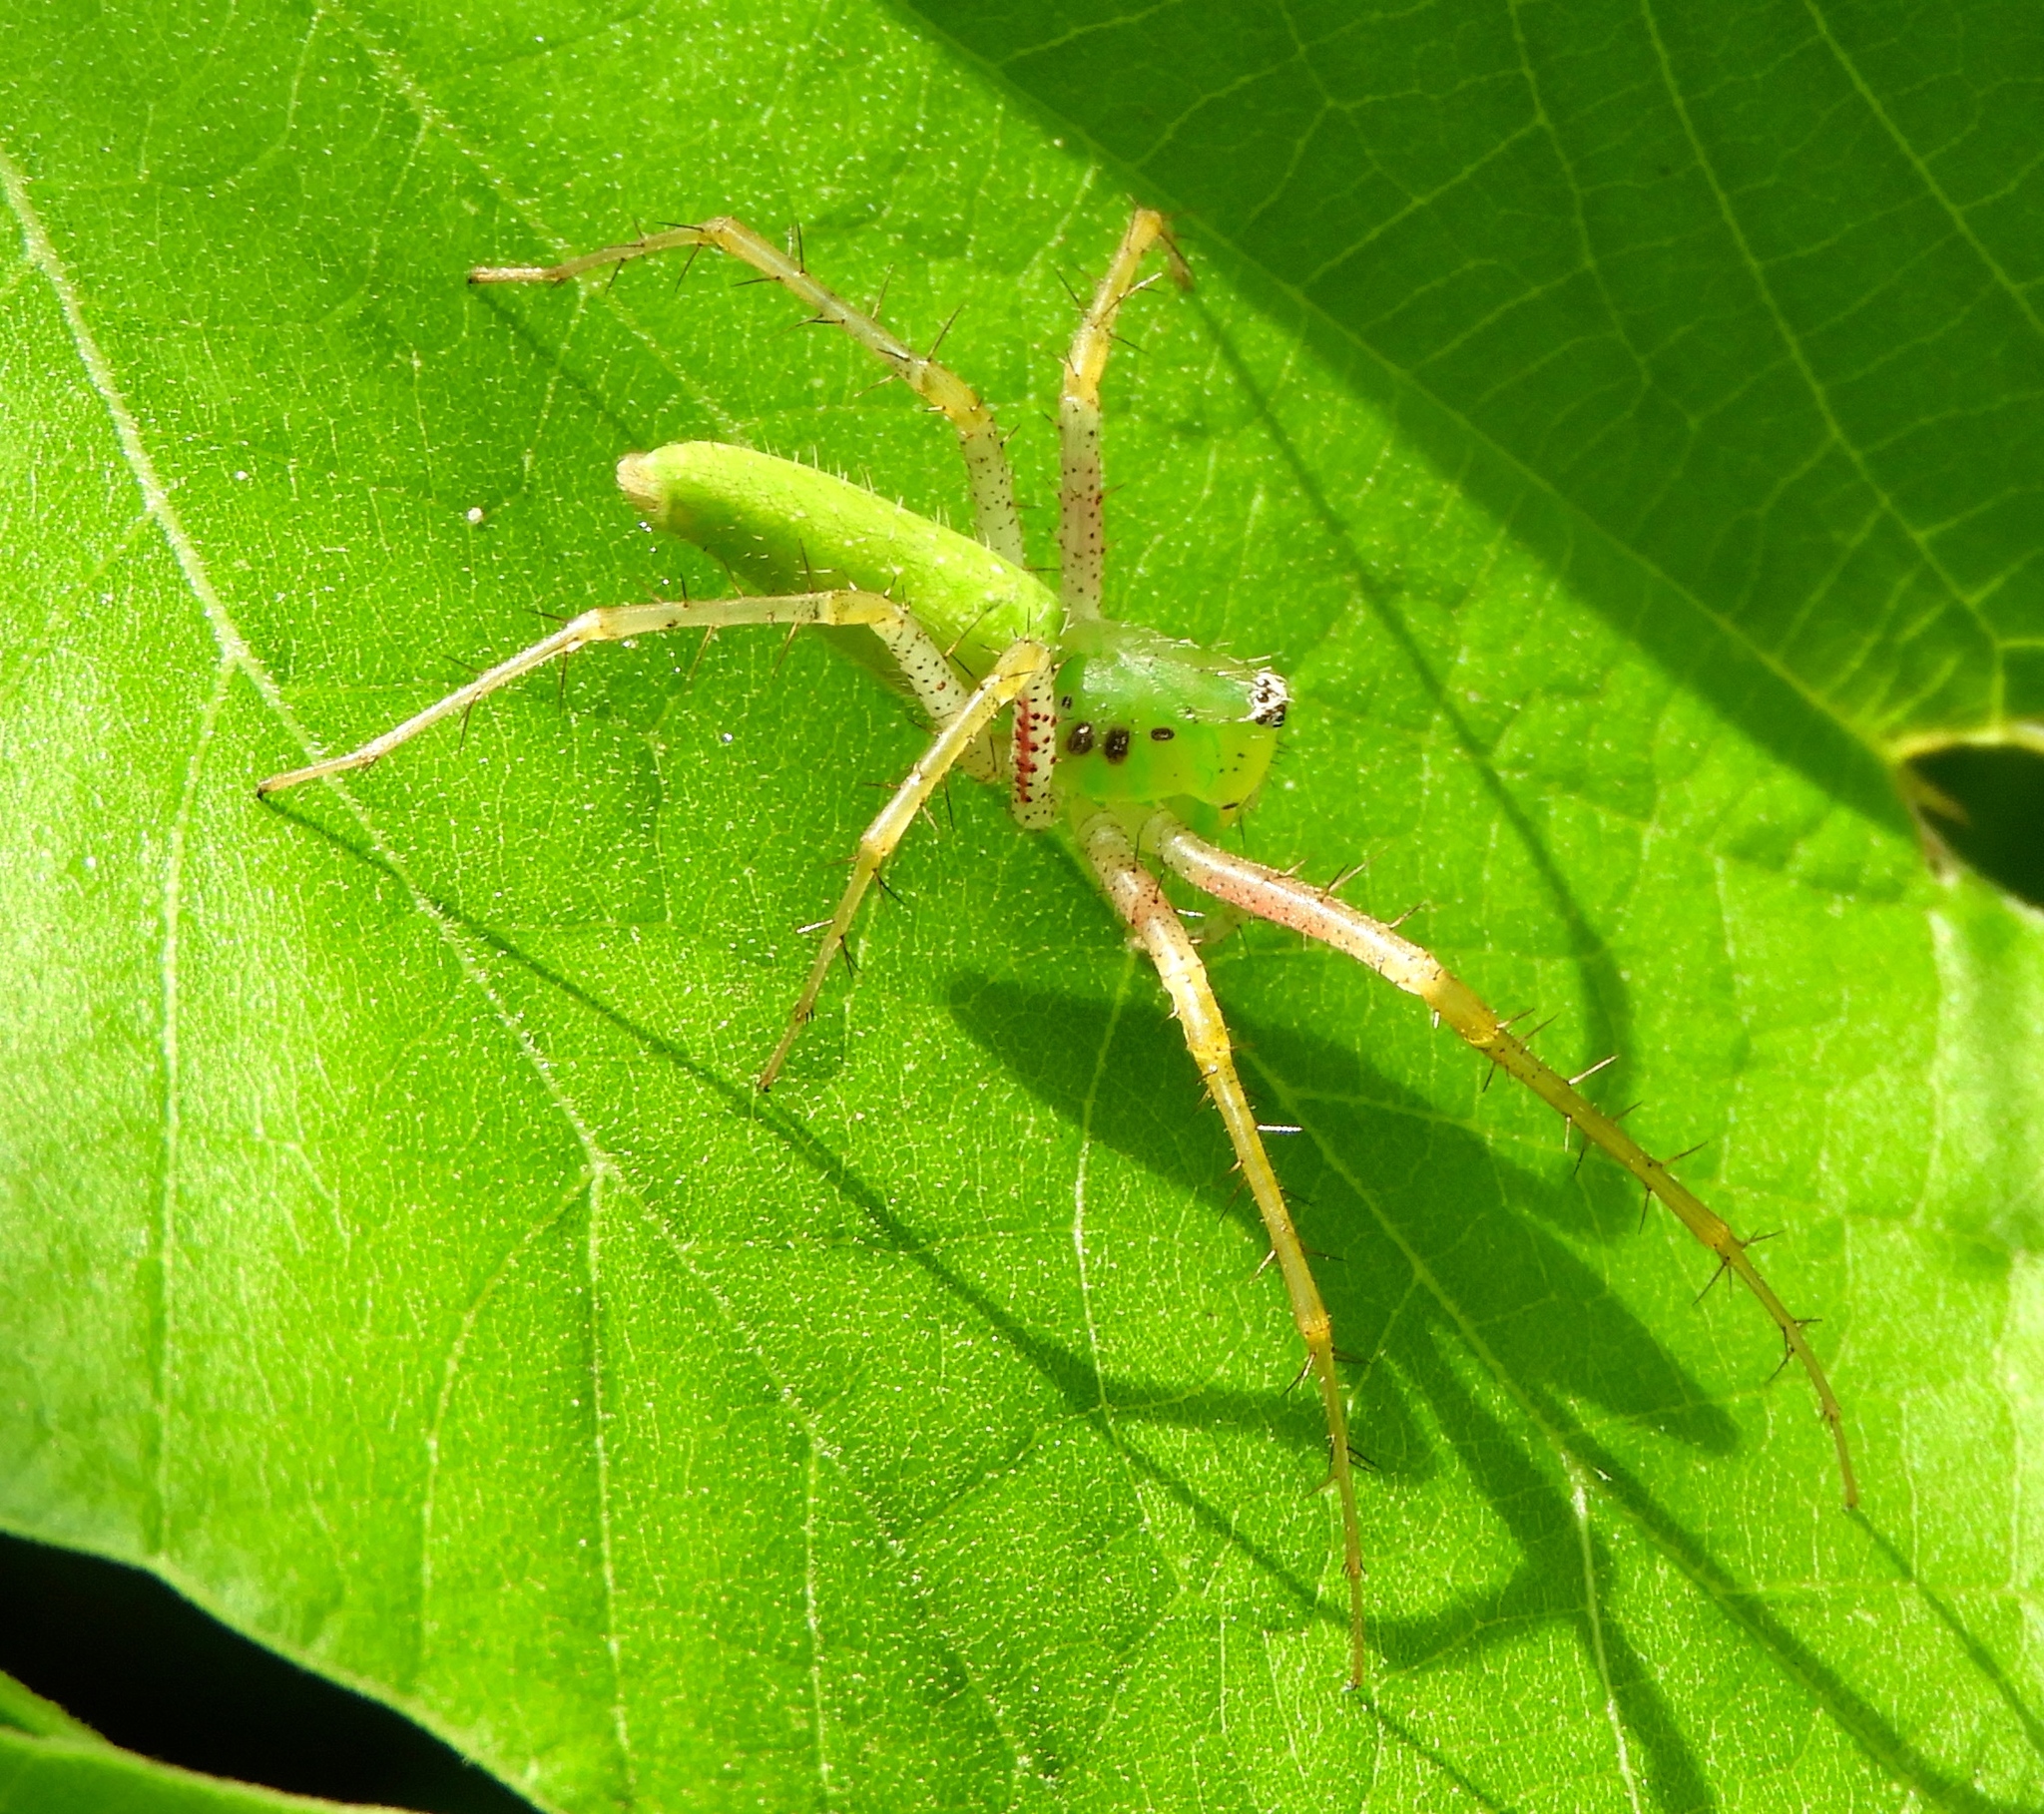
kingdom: Animalia
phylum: Arthropoda
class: Arachnida
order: Araneae
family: Oxyopidae
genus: Peucetia
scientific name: Peucetia
